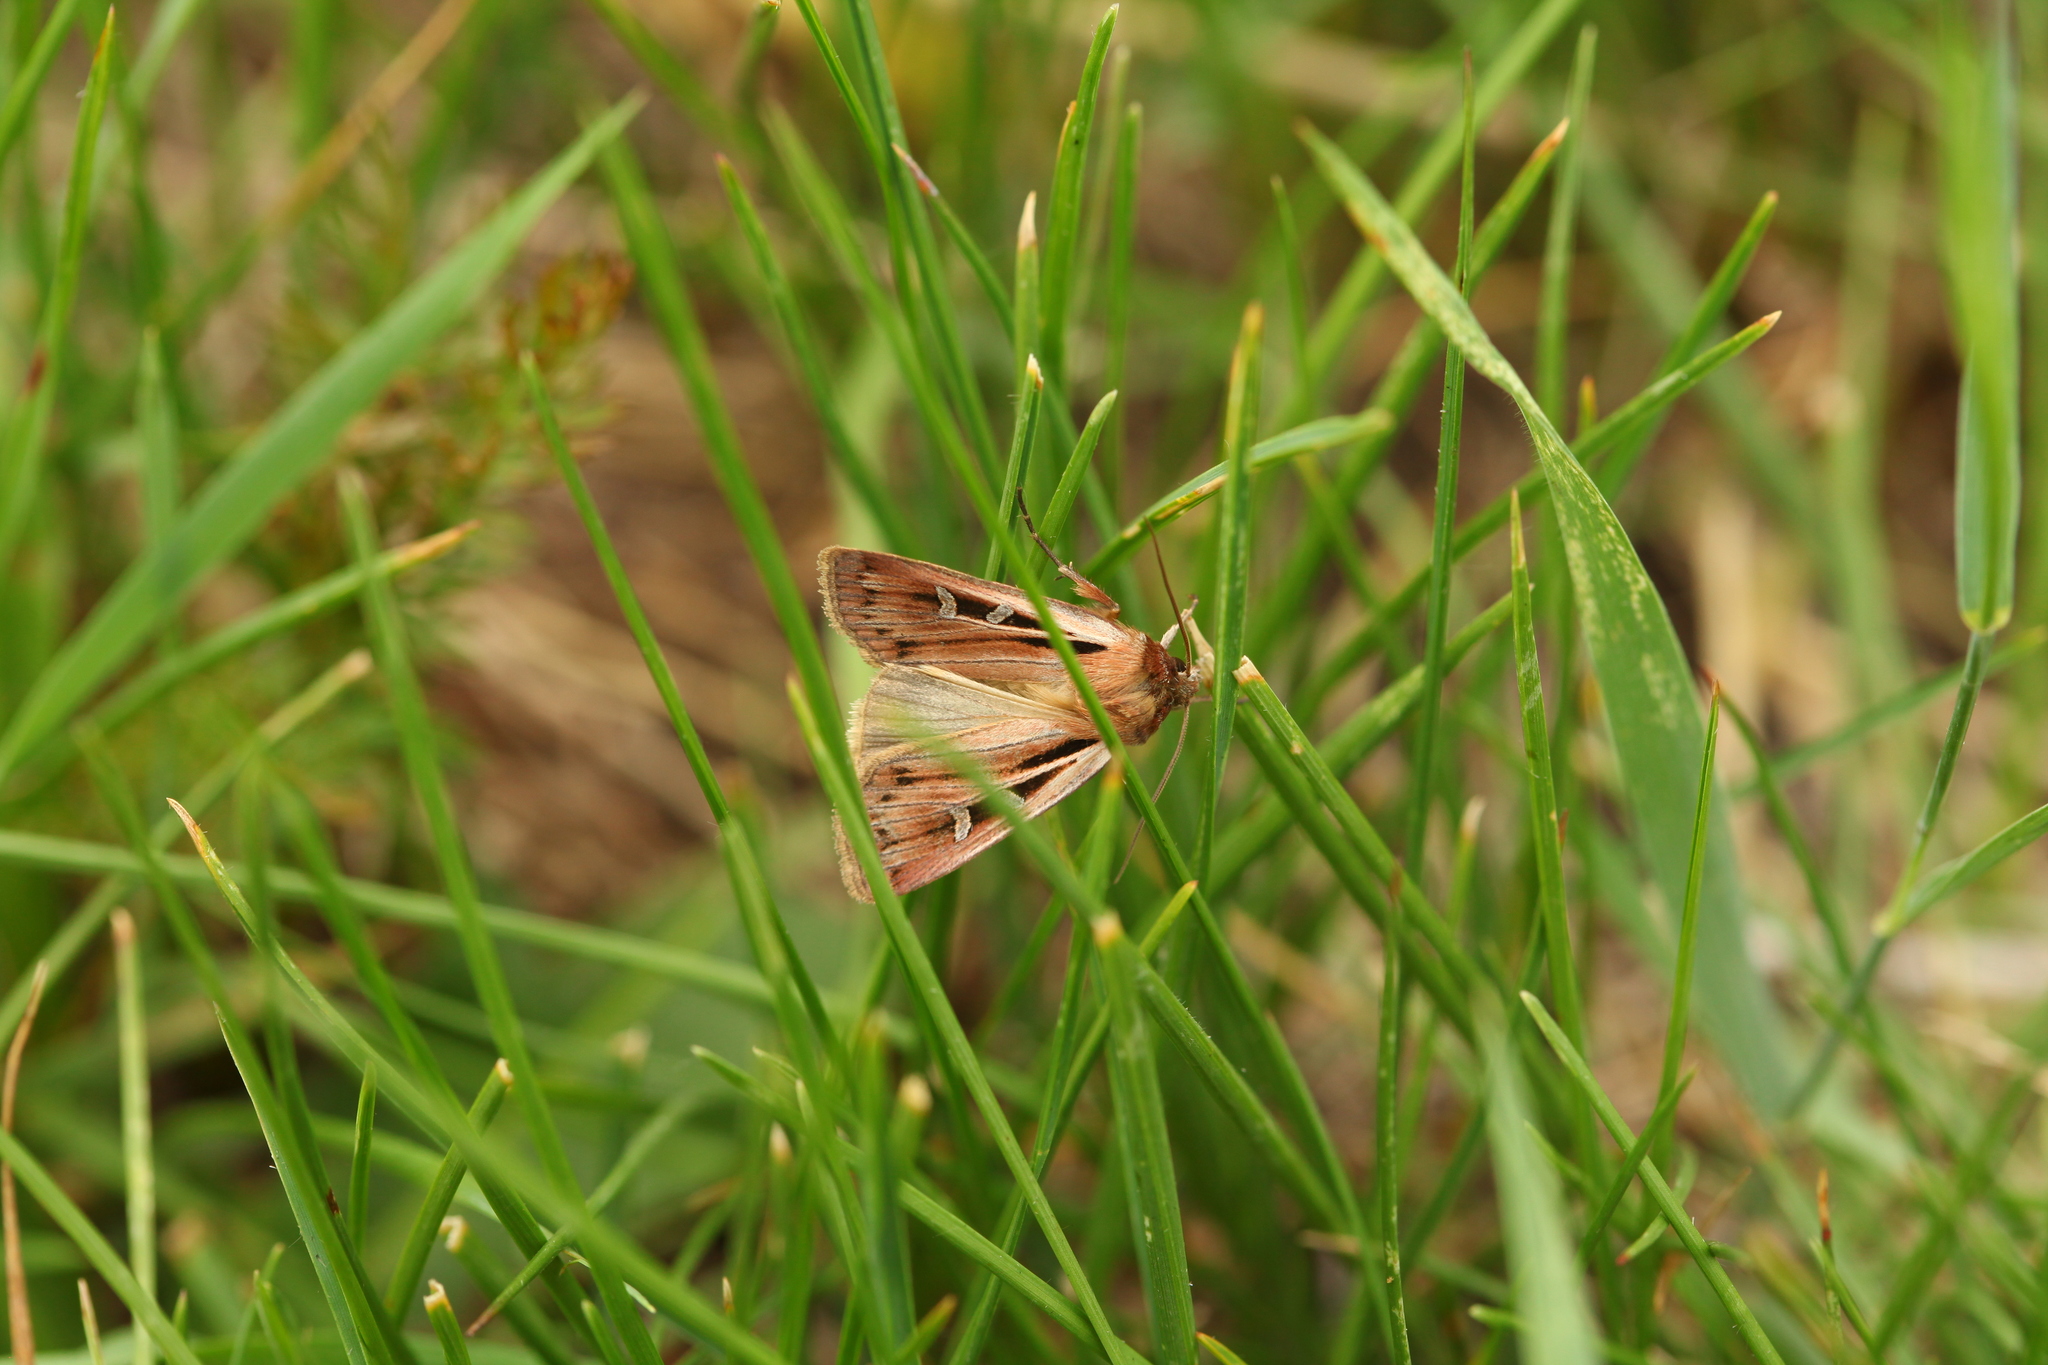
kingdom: Animalia
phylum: Arthropoda
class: Insecta
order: Lepidoptera
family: Noctuidae
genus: Pseudohermonassa
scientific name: Pseudohermonassa ononensis
